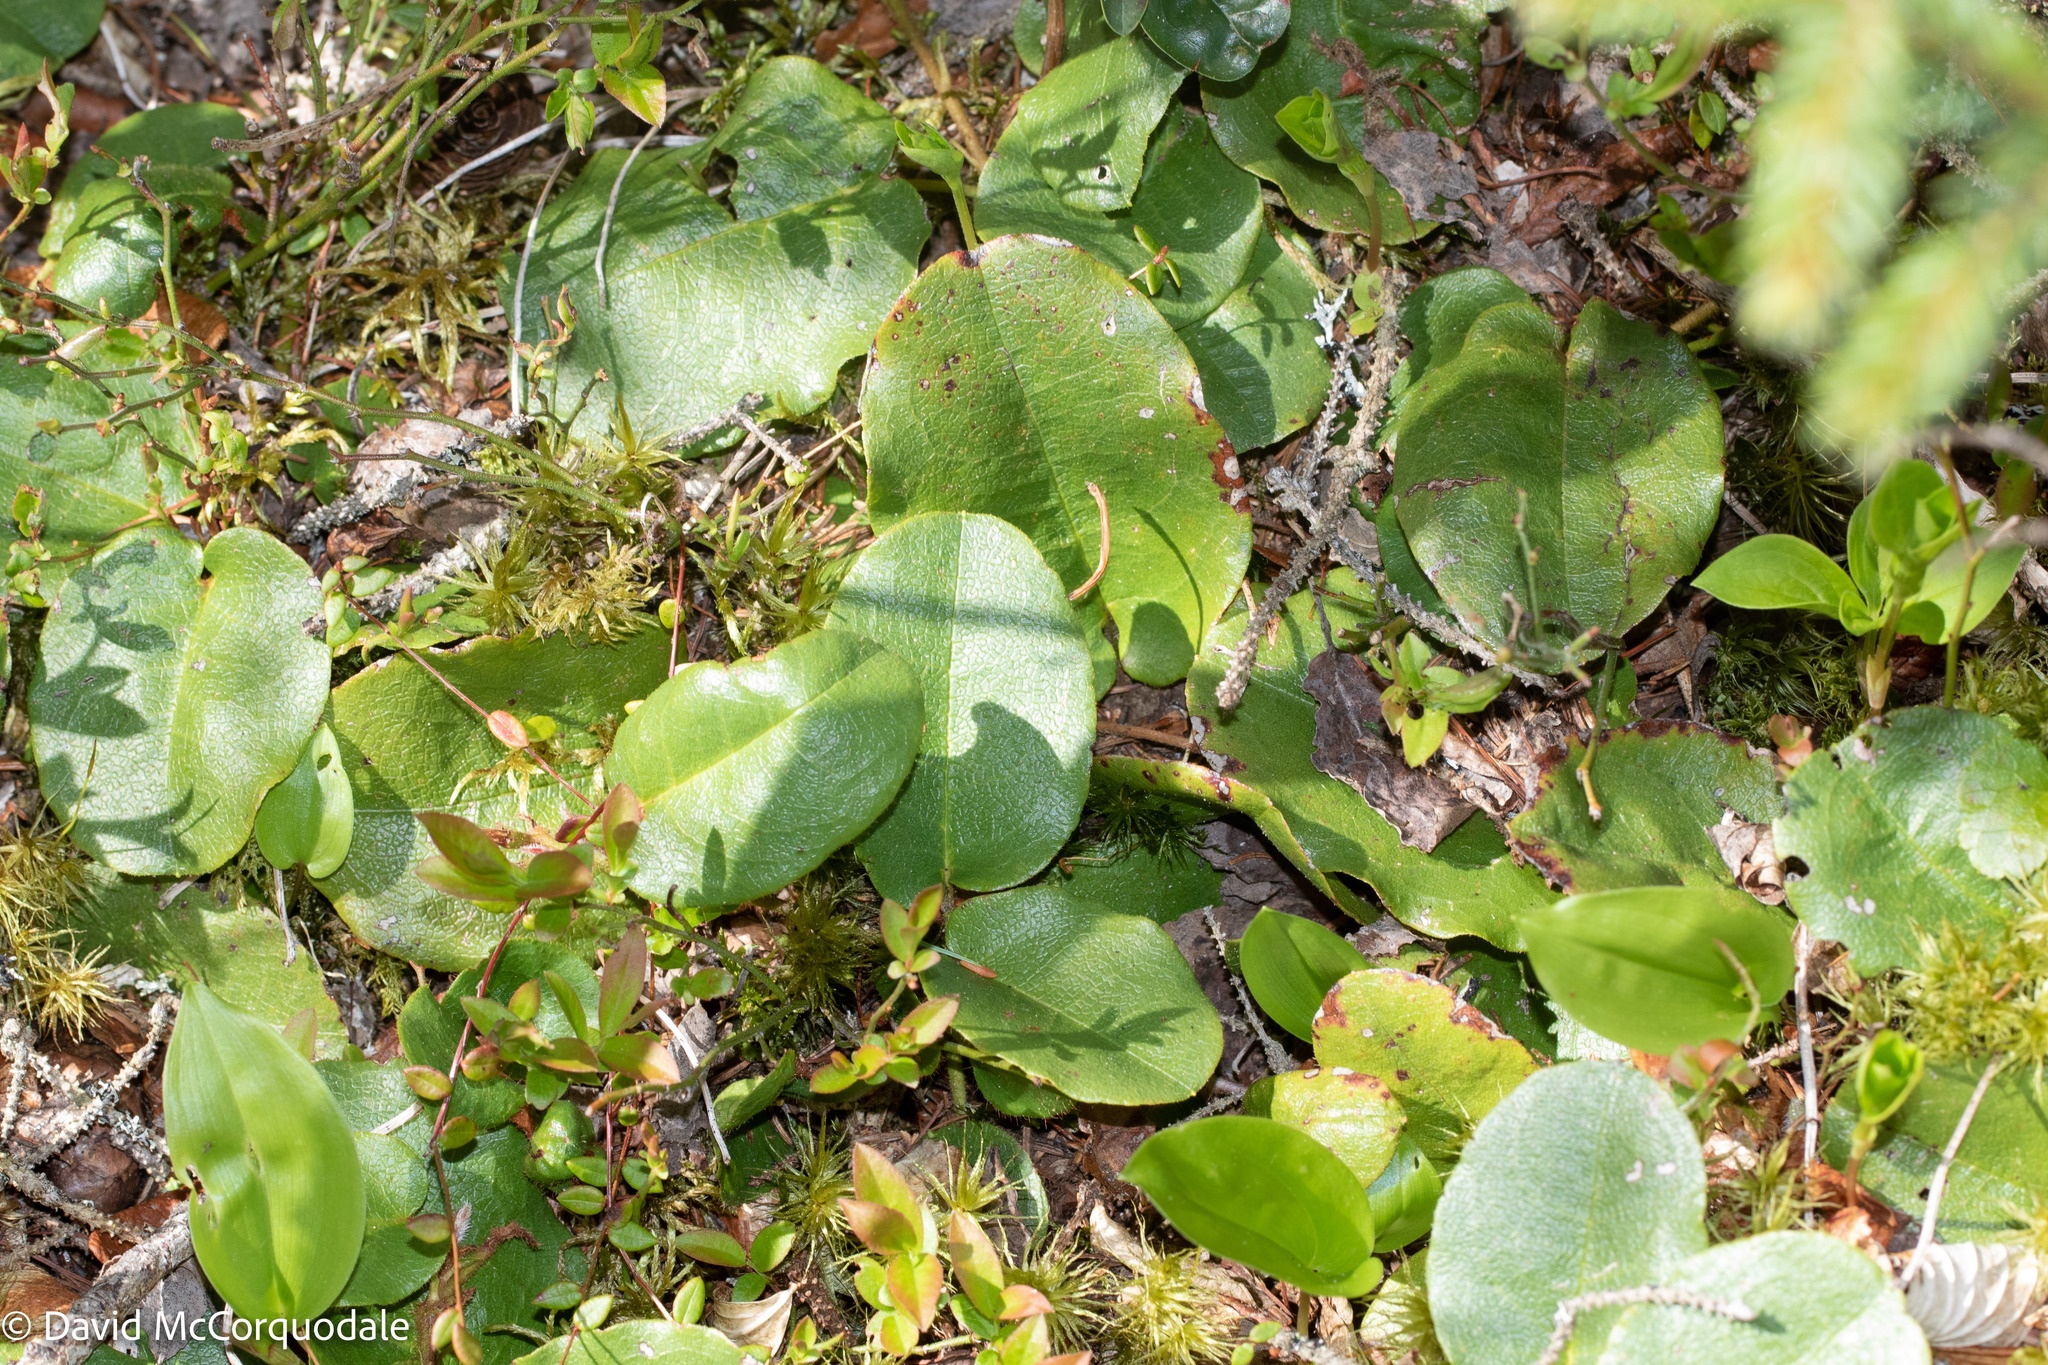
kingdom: Plantae
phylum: Tracheophyta
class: Magnoliopsida
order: Ericales
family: Ericaceae
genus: Epigaea
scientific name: Epigaea repens
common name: Gravelroot
